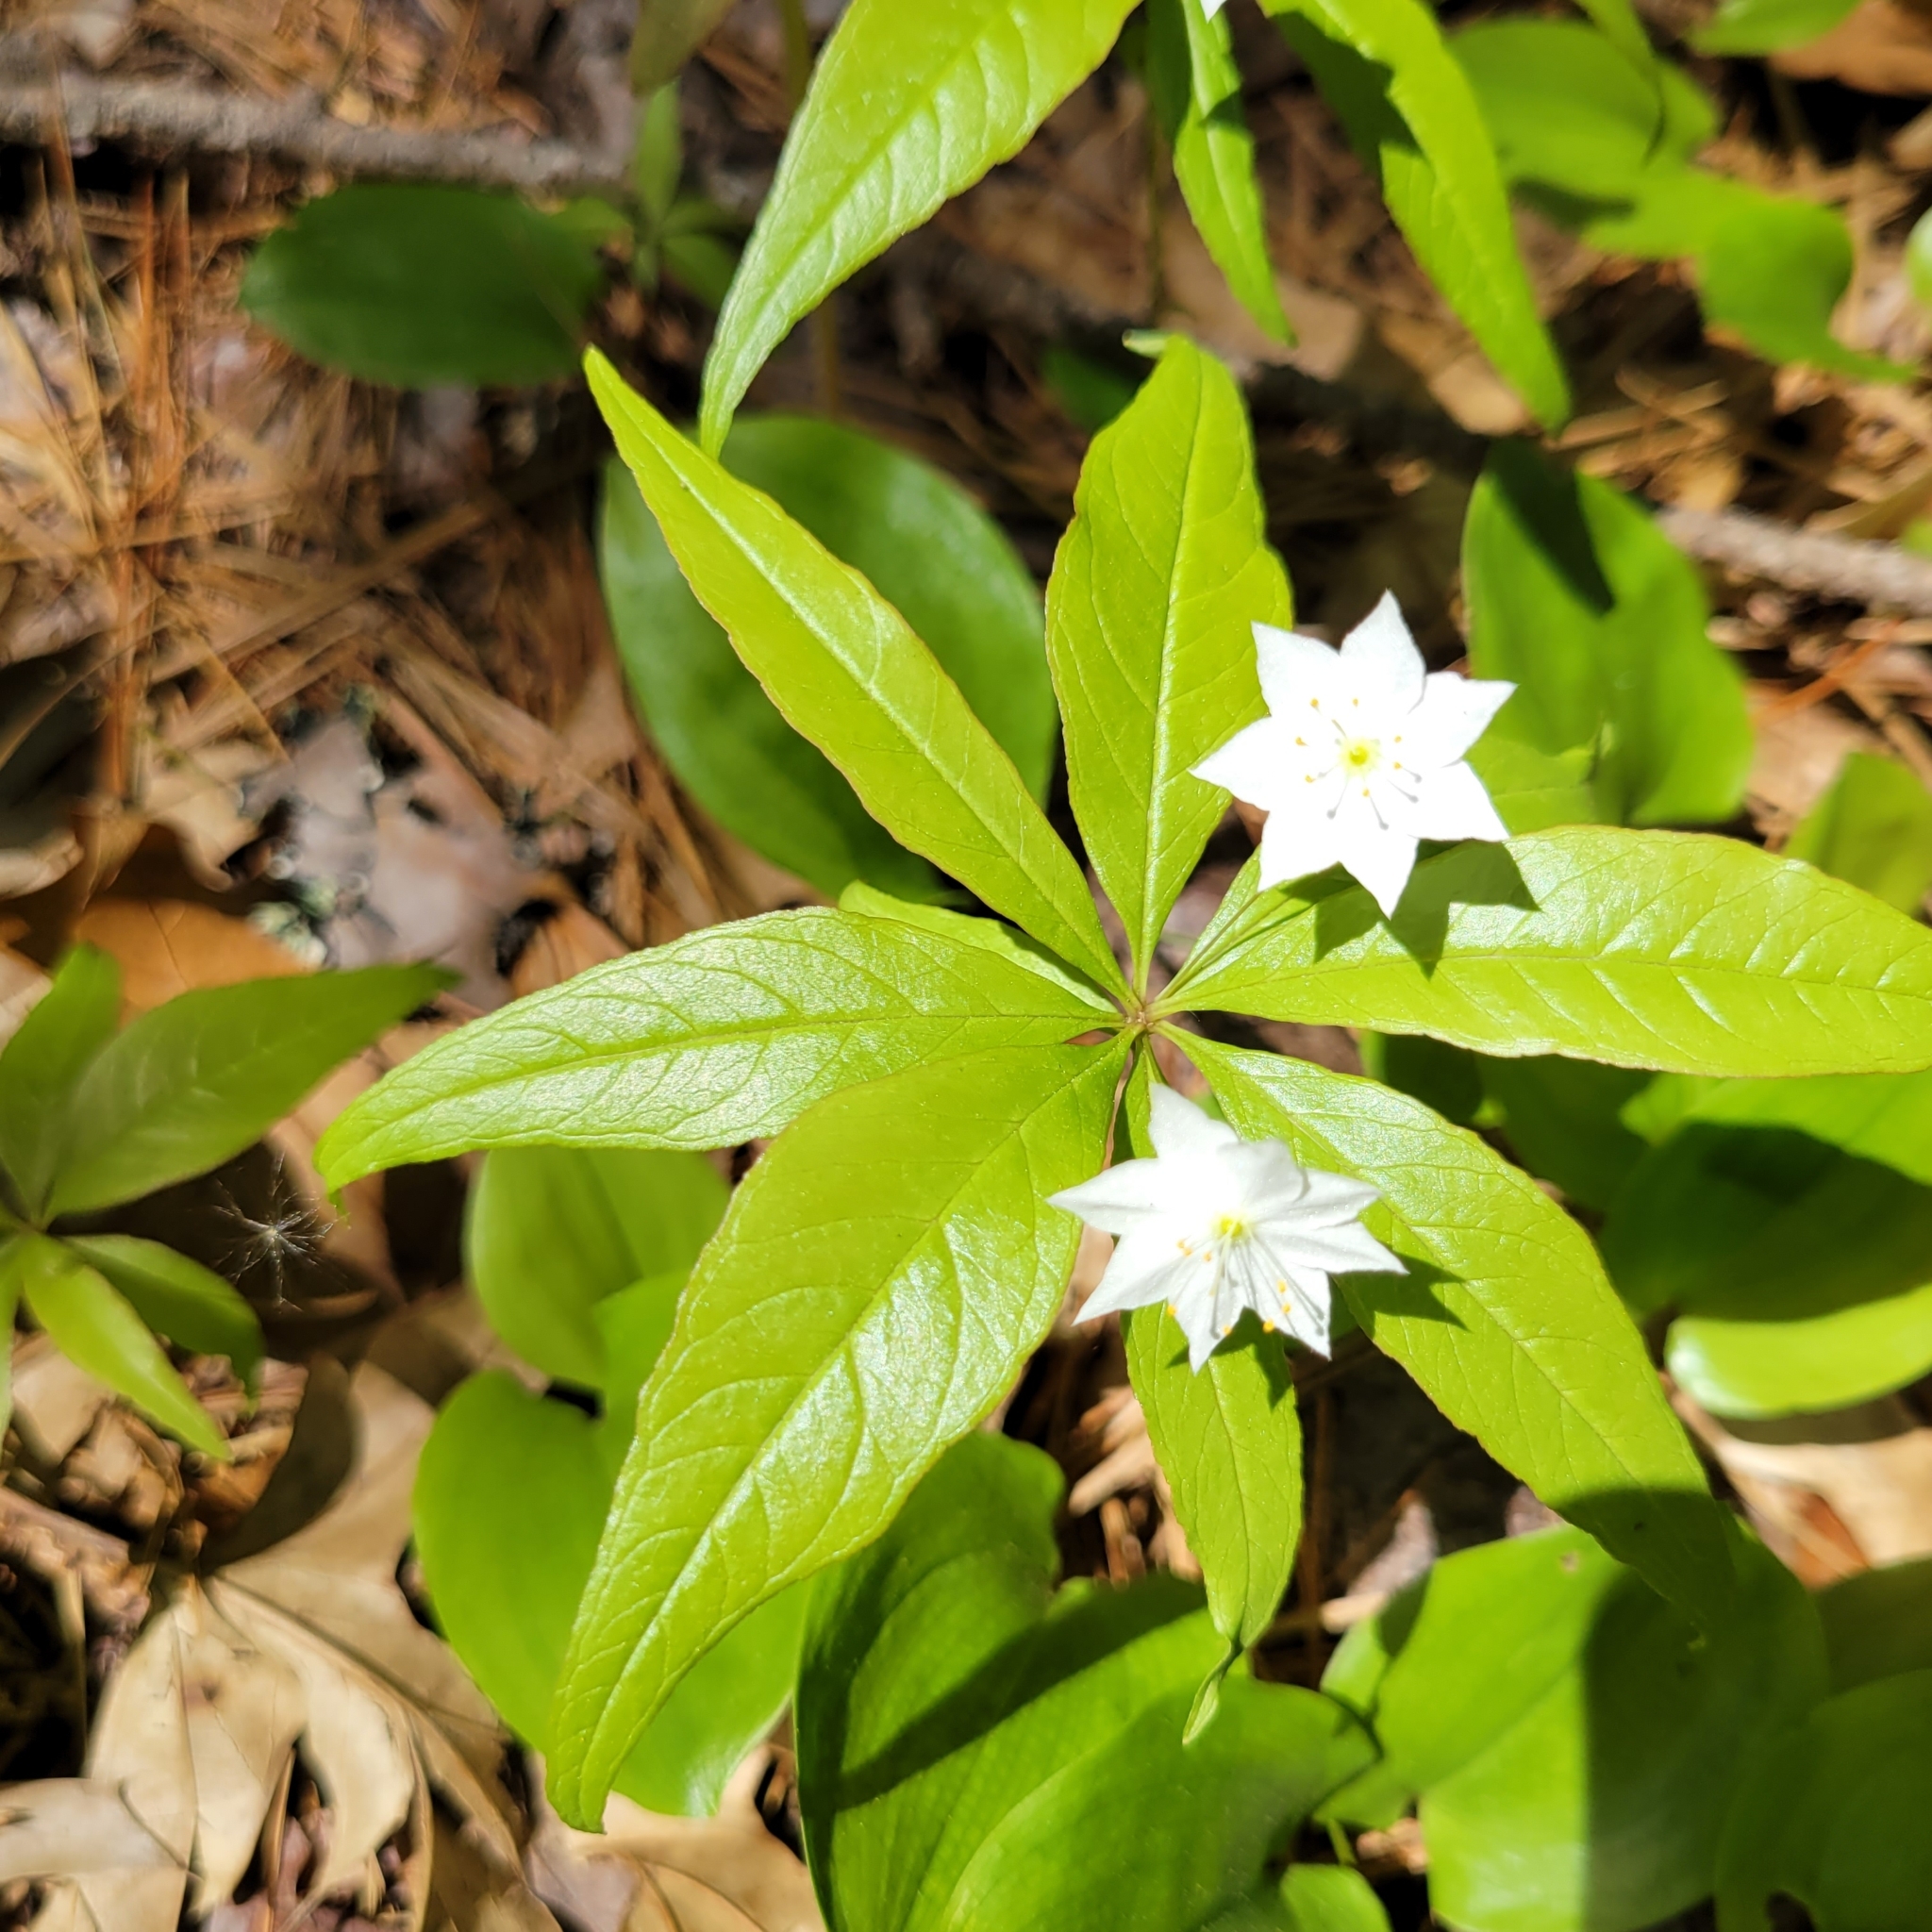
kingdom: Plantae
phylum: Tracheophyta
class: Magnoliopsida
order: Ericales
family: Primulaceae
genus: Lysimachia
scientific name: Lysimachia borealis
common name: American starflower
